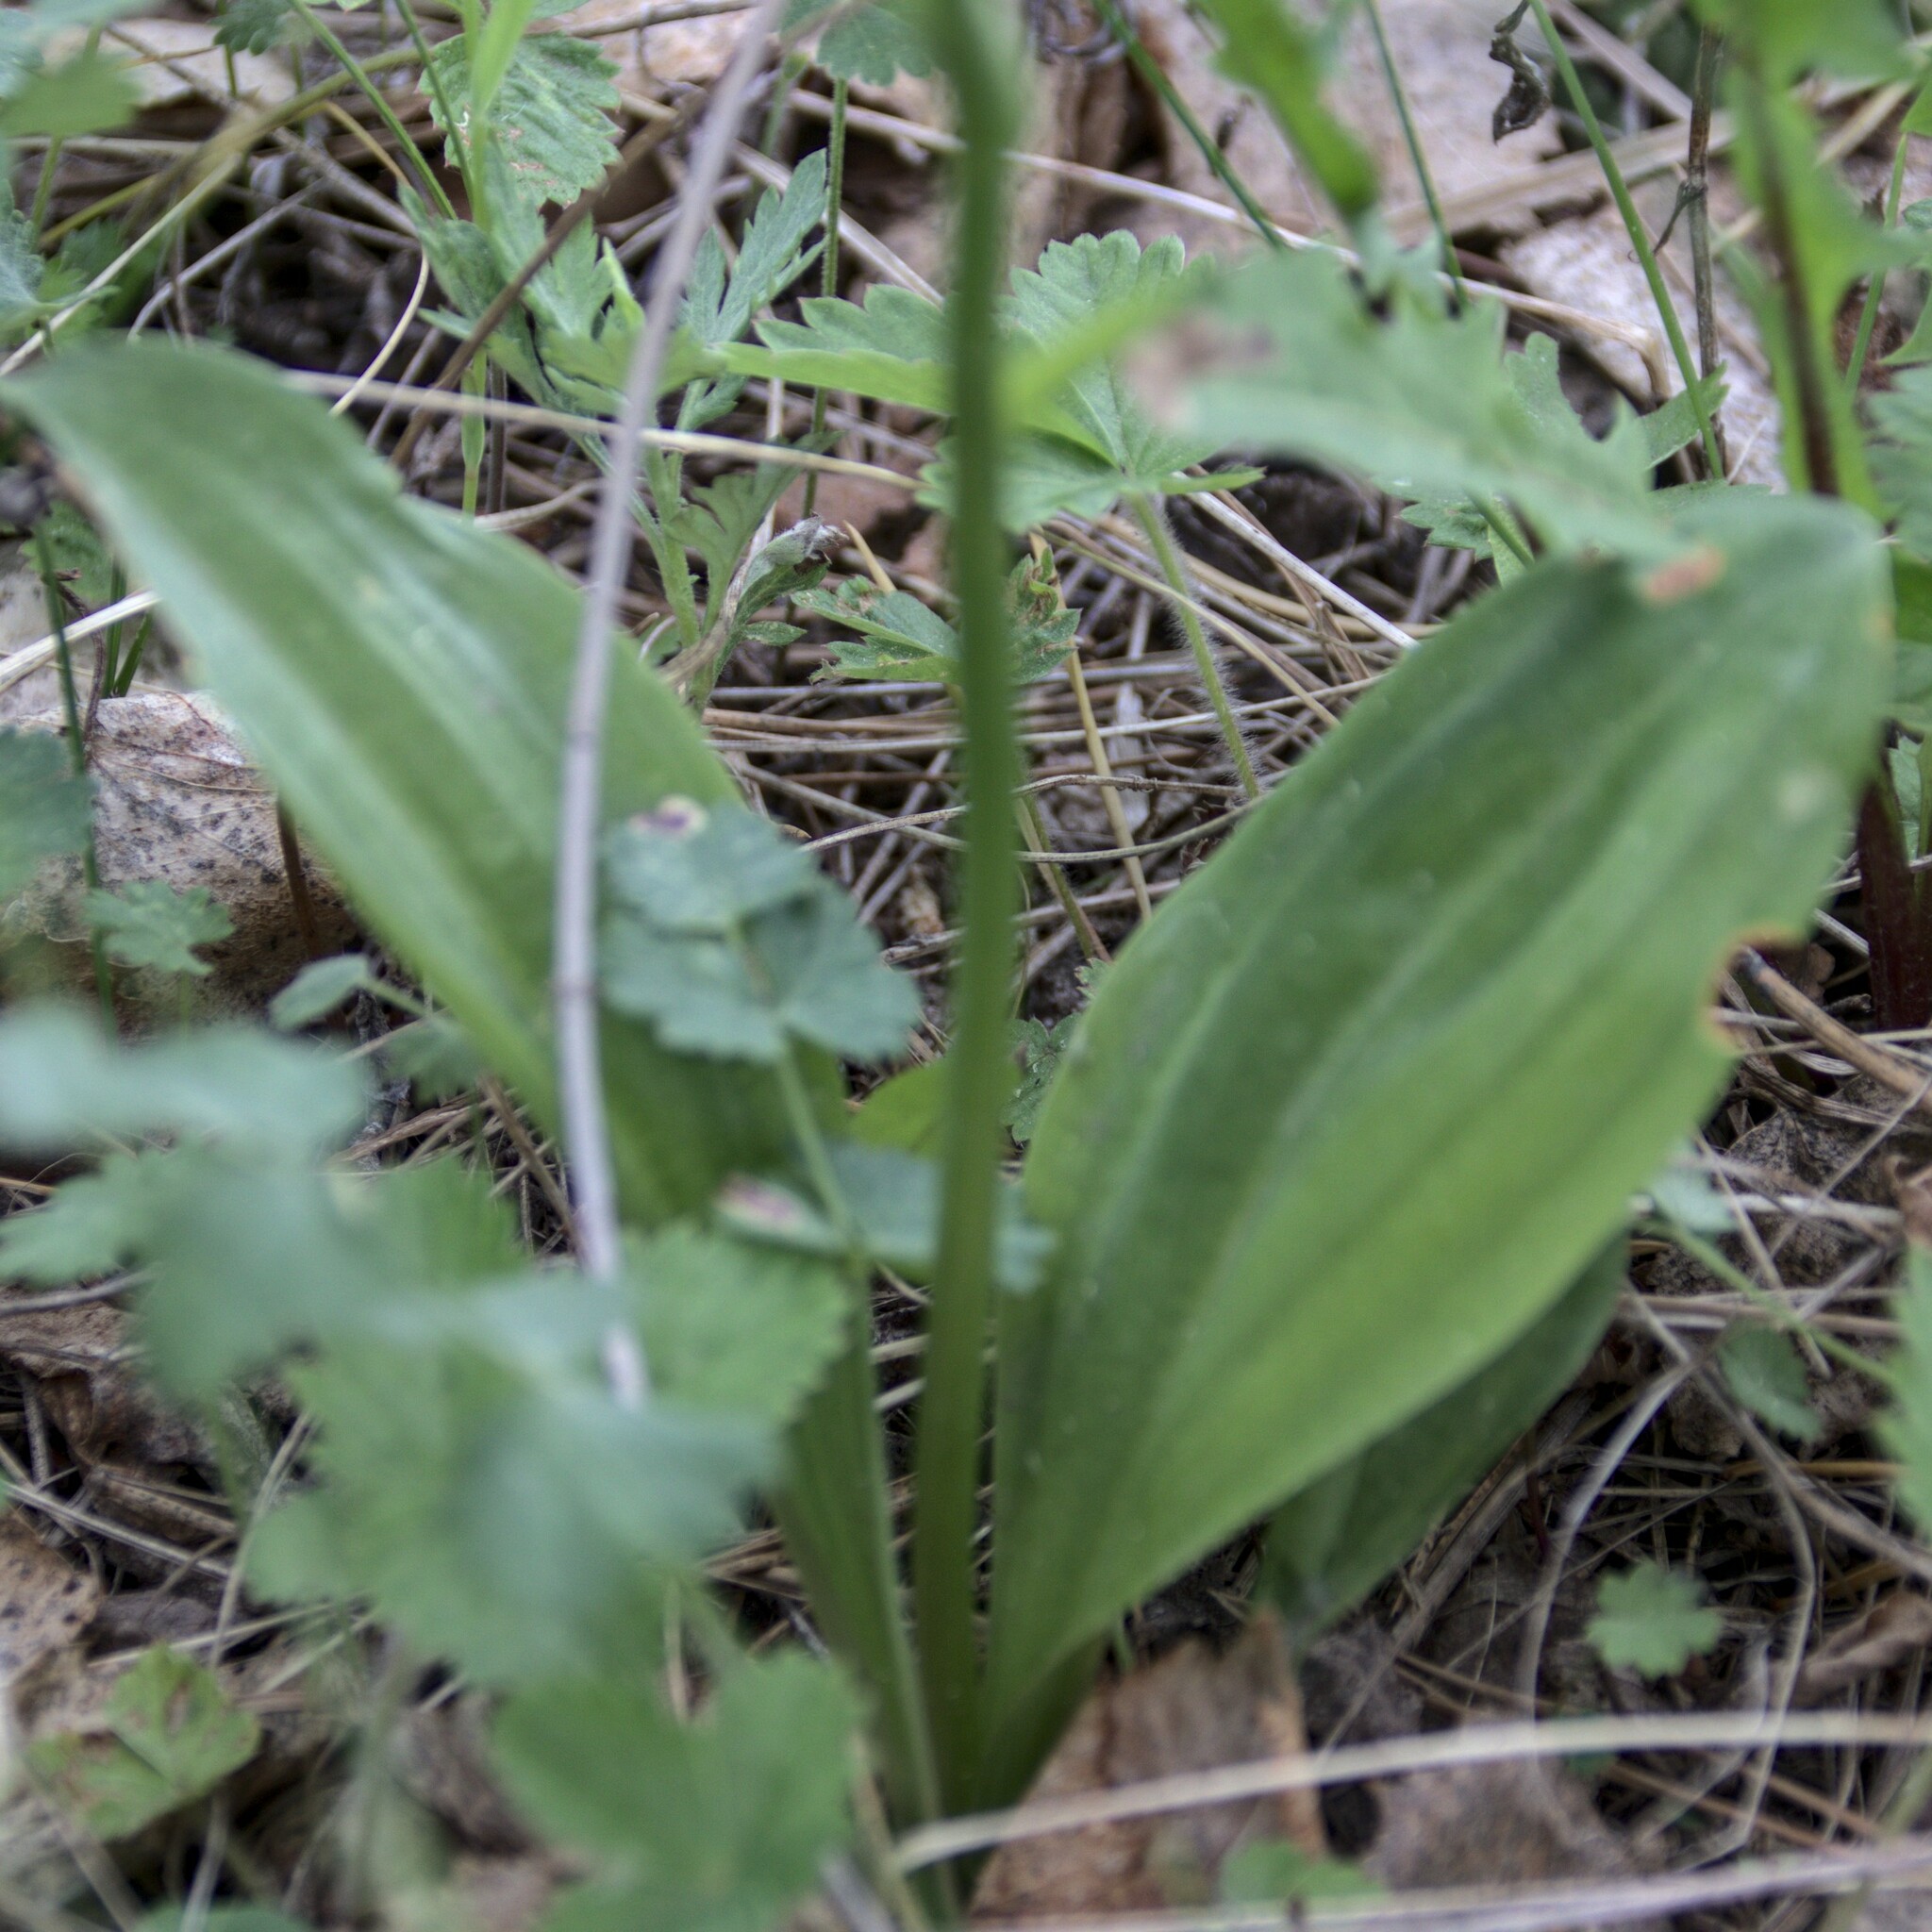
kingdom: Plantae
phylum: Tracheophyta
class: Liliopsida
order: Asparagales
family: Orchidaceae
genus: Platanthera
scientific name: Platanthera bifolia
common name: Lesser butterfly-orchid
